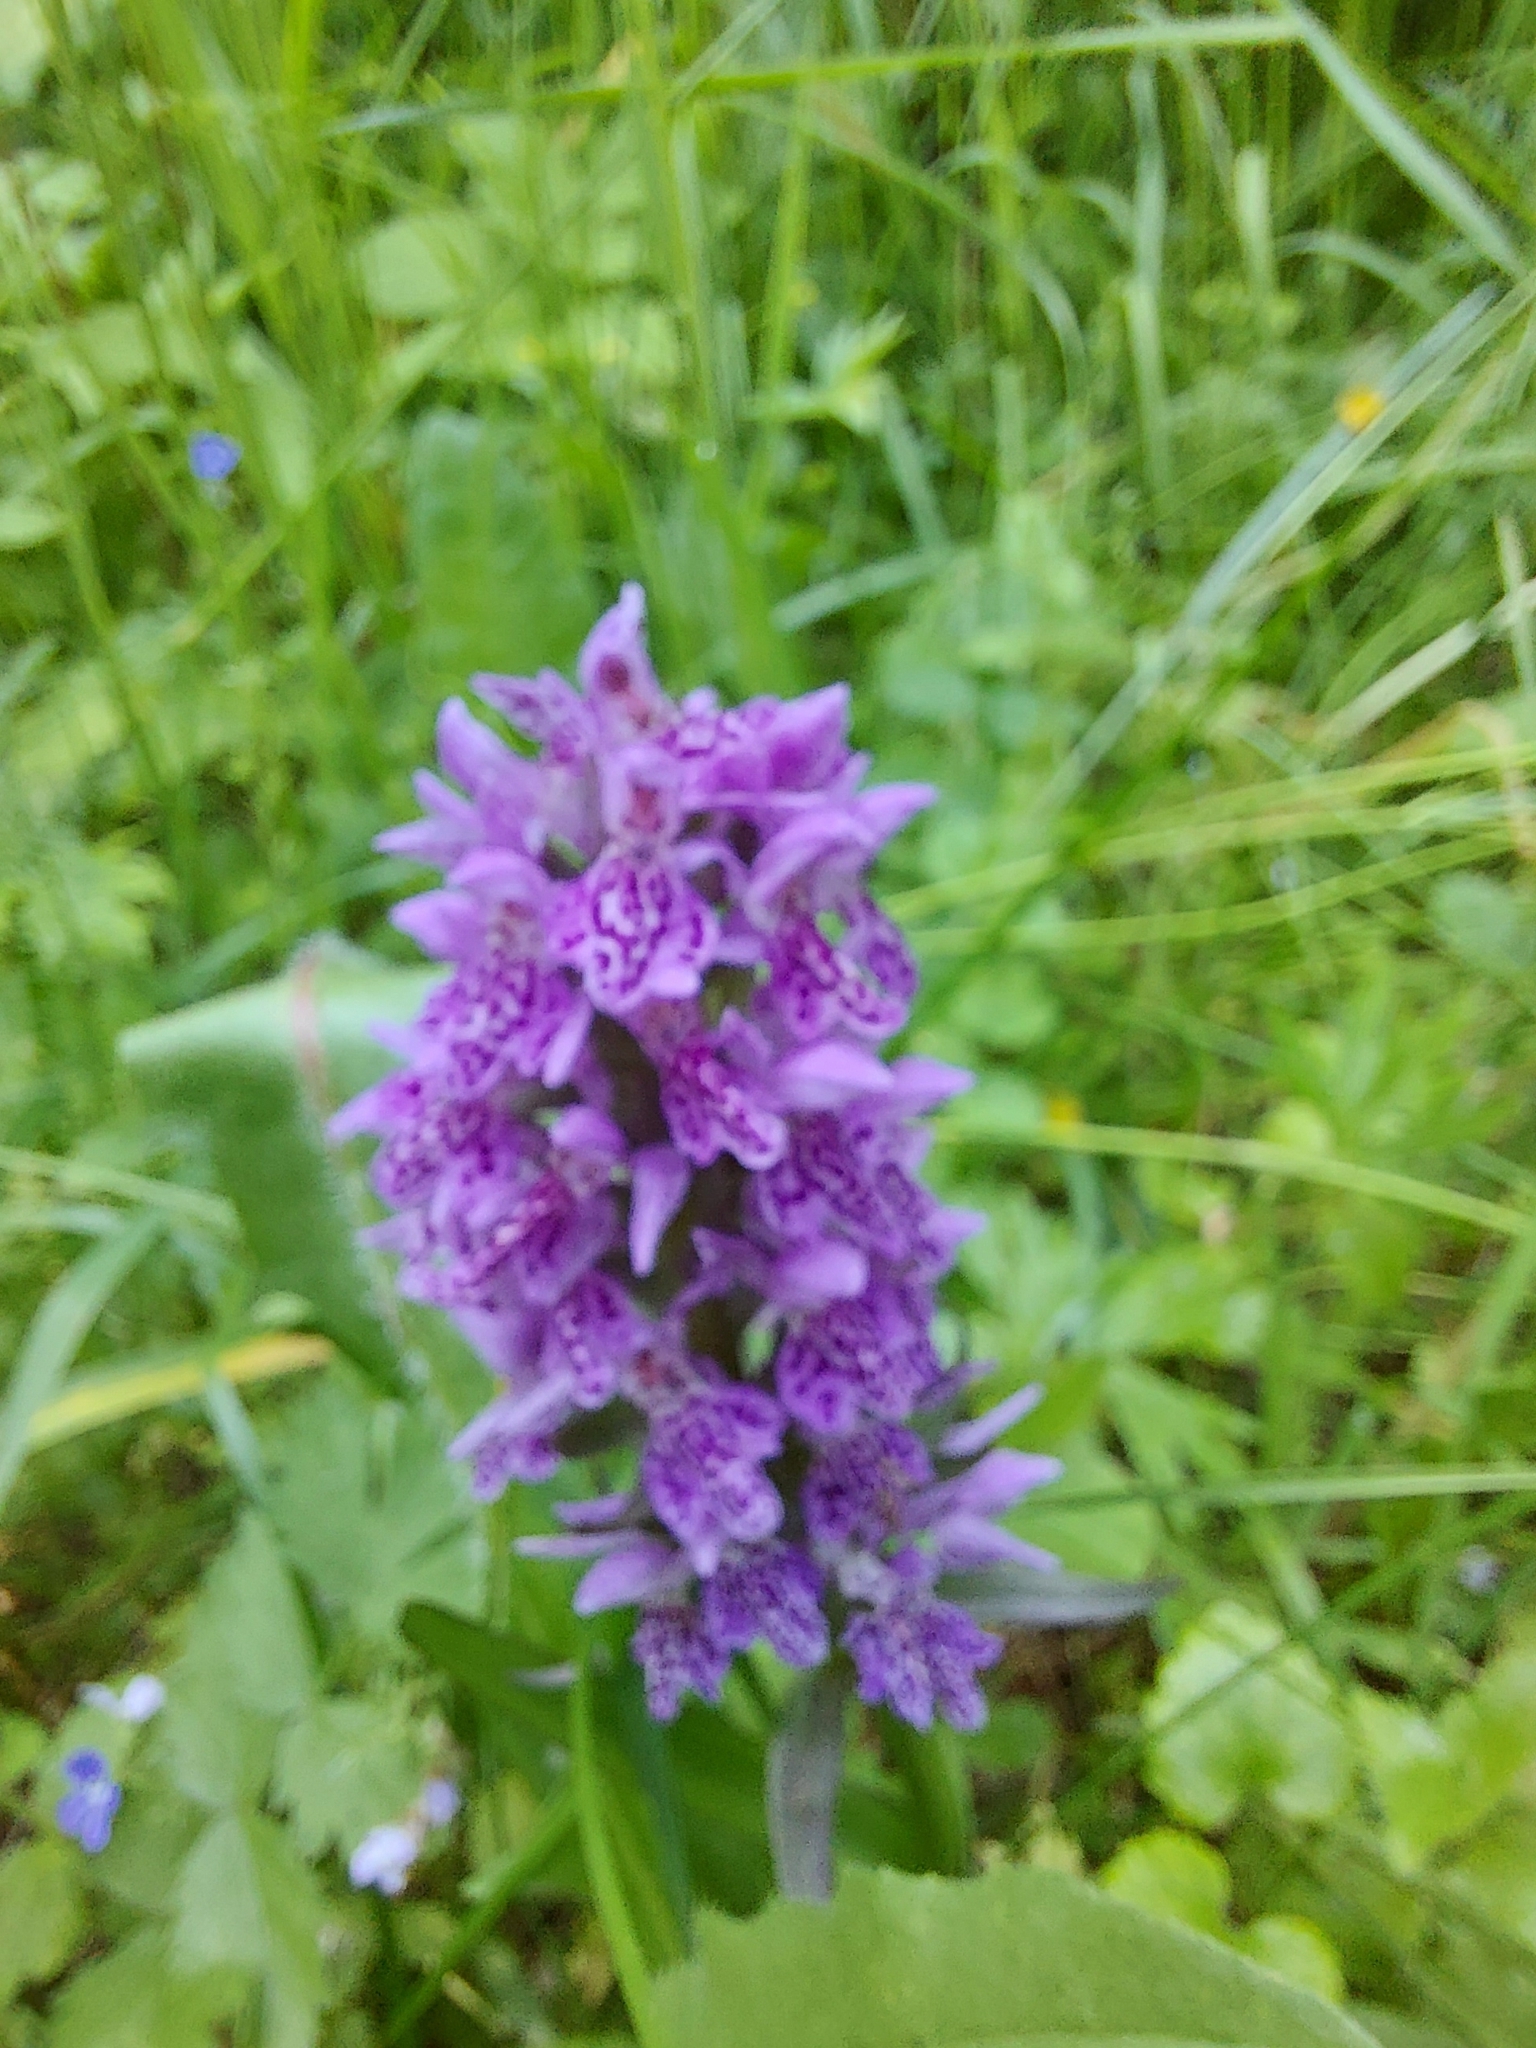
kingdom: Plantae
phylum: Tracheophyta
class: Liliopsida
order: Asparagales
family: Orchidaceae
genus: Dactylorhiza
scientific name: Dactylorhiza sibirica
